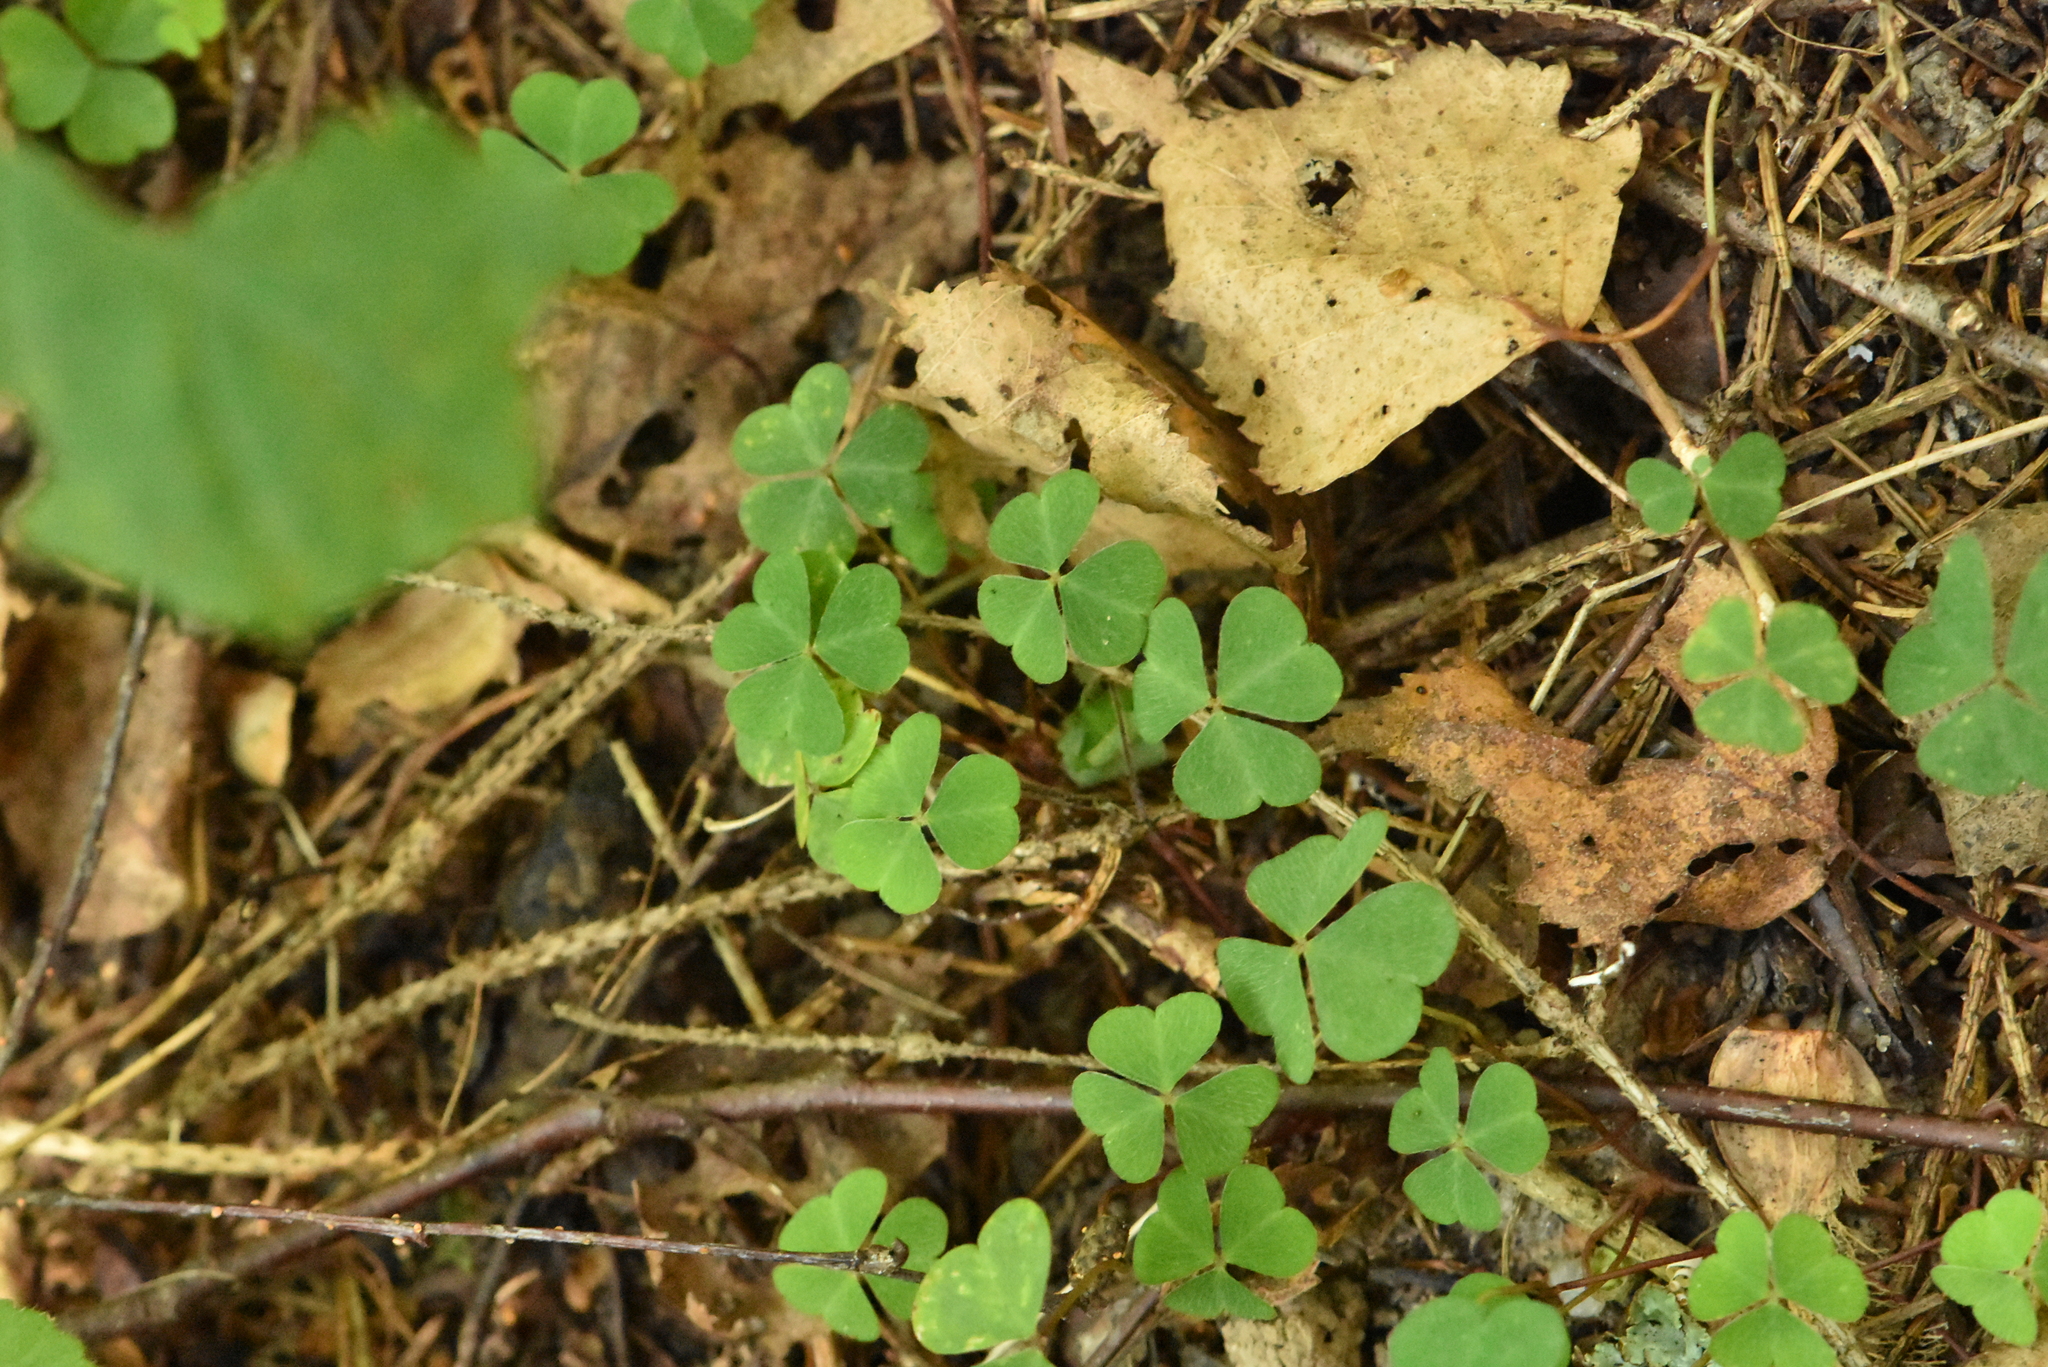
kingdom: Plantae
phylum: Tracheophyta
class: Magnoliopsida
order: Oxalidales
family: Oxalidaceae
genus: Oxalis
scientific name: Oxalis acetosella
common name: Wood-sorrel
